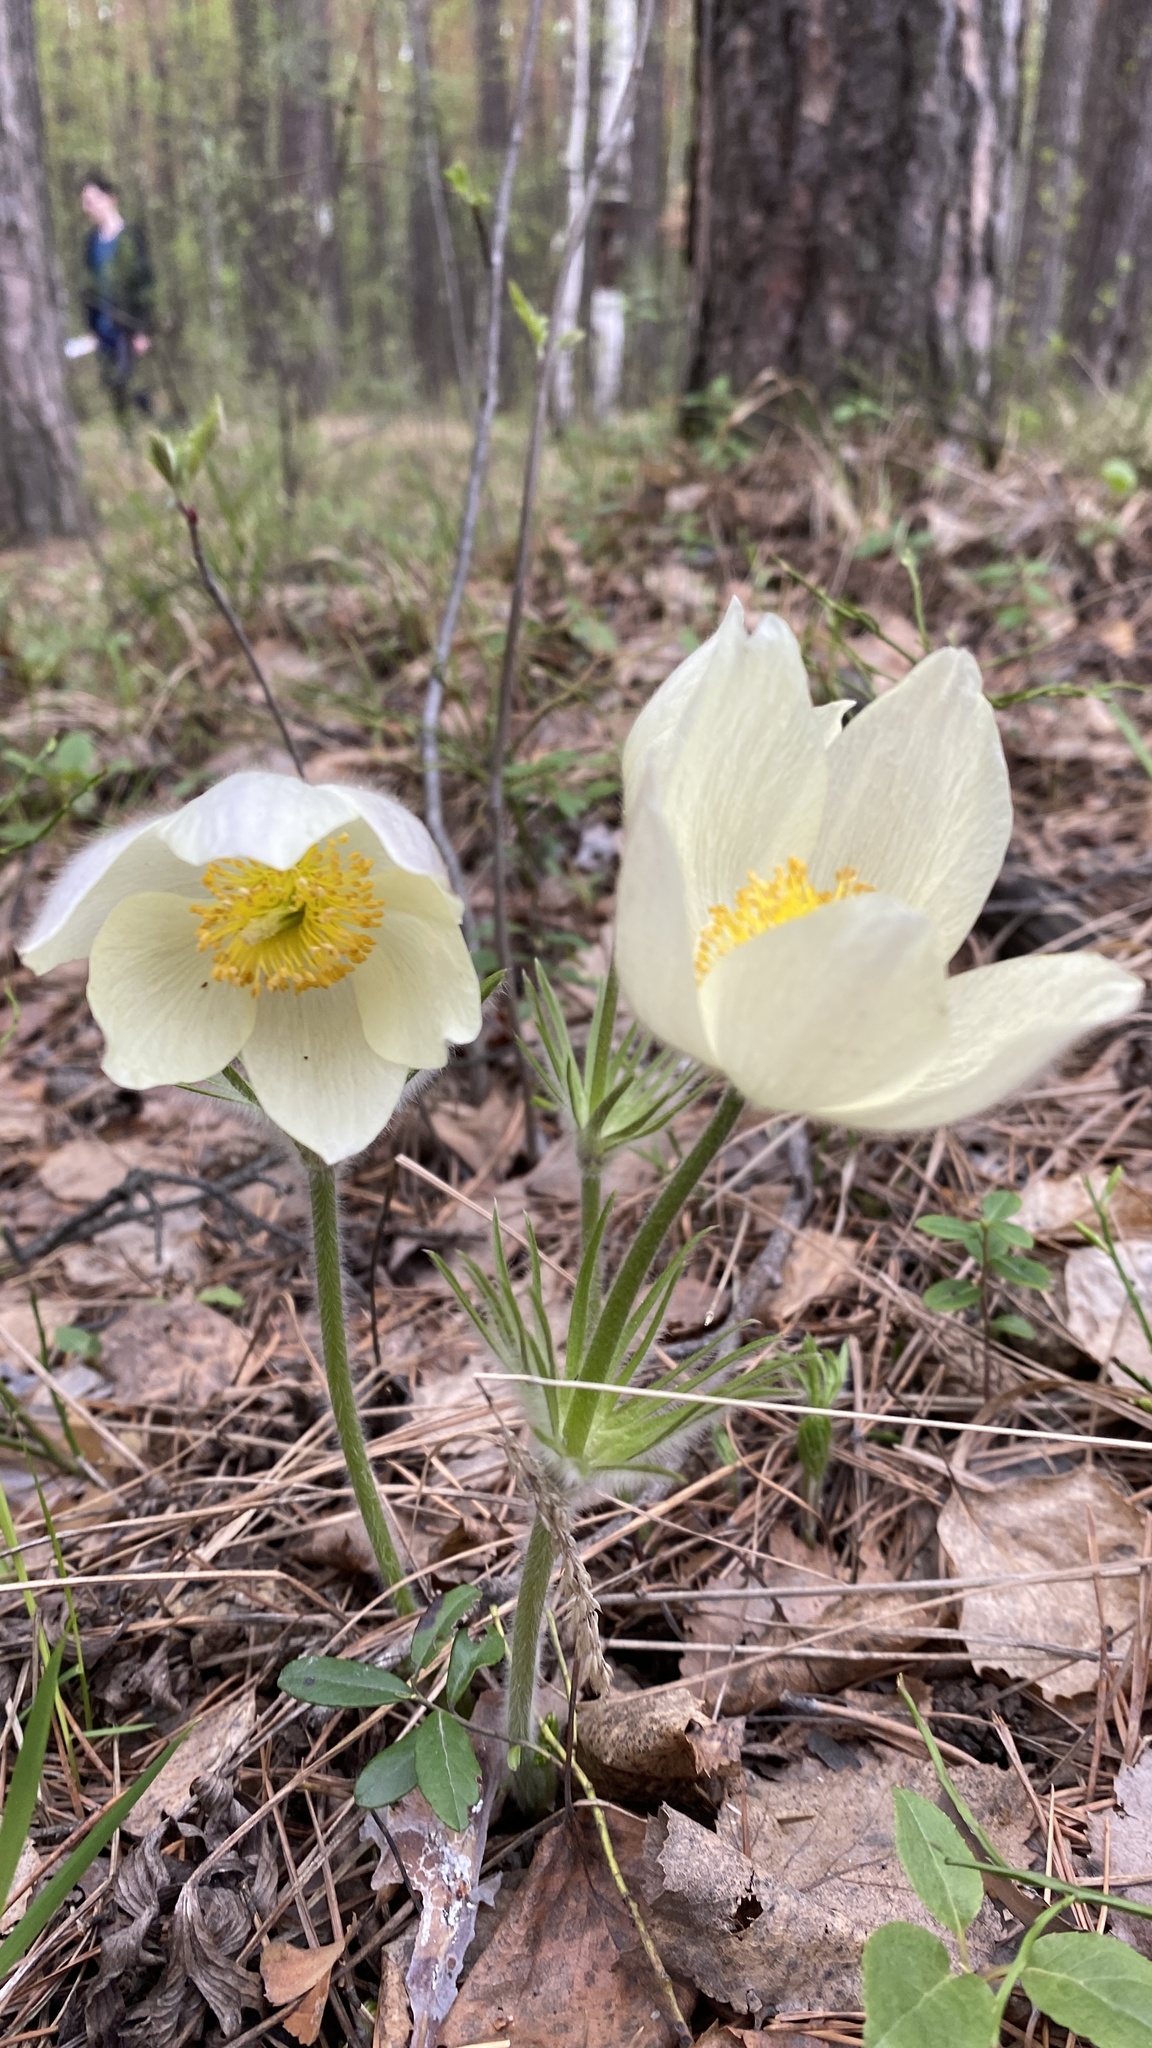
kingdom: Plantae
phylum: Tracheophyta
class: Magnoliopsida
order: Ranunculales
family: Ranunculaceae
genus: Pulsatilla
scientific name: Pulsatilla patens
